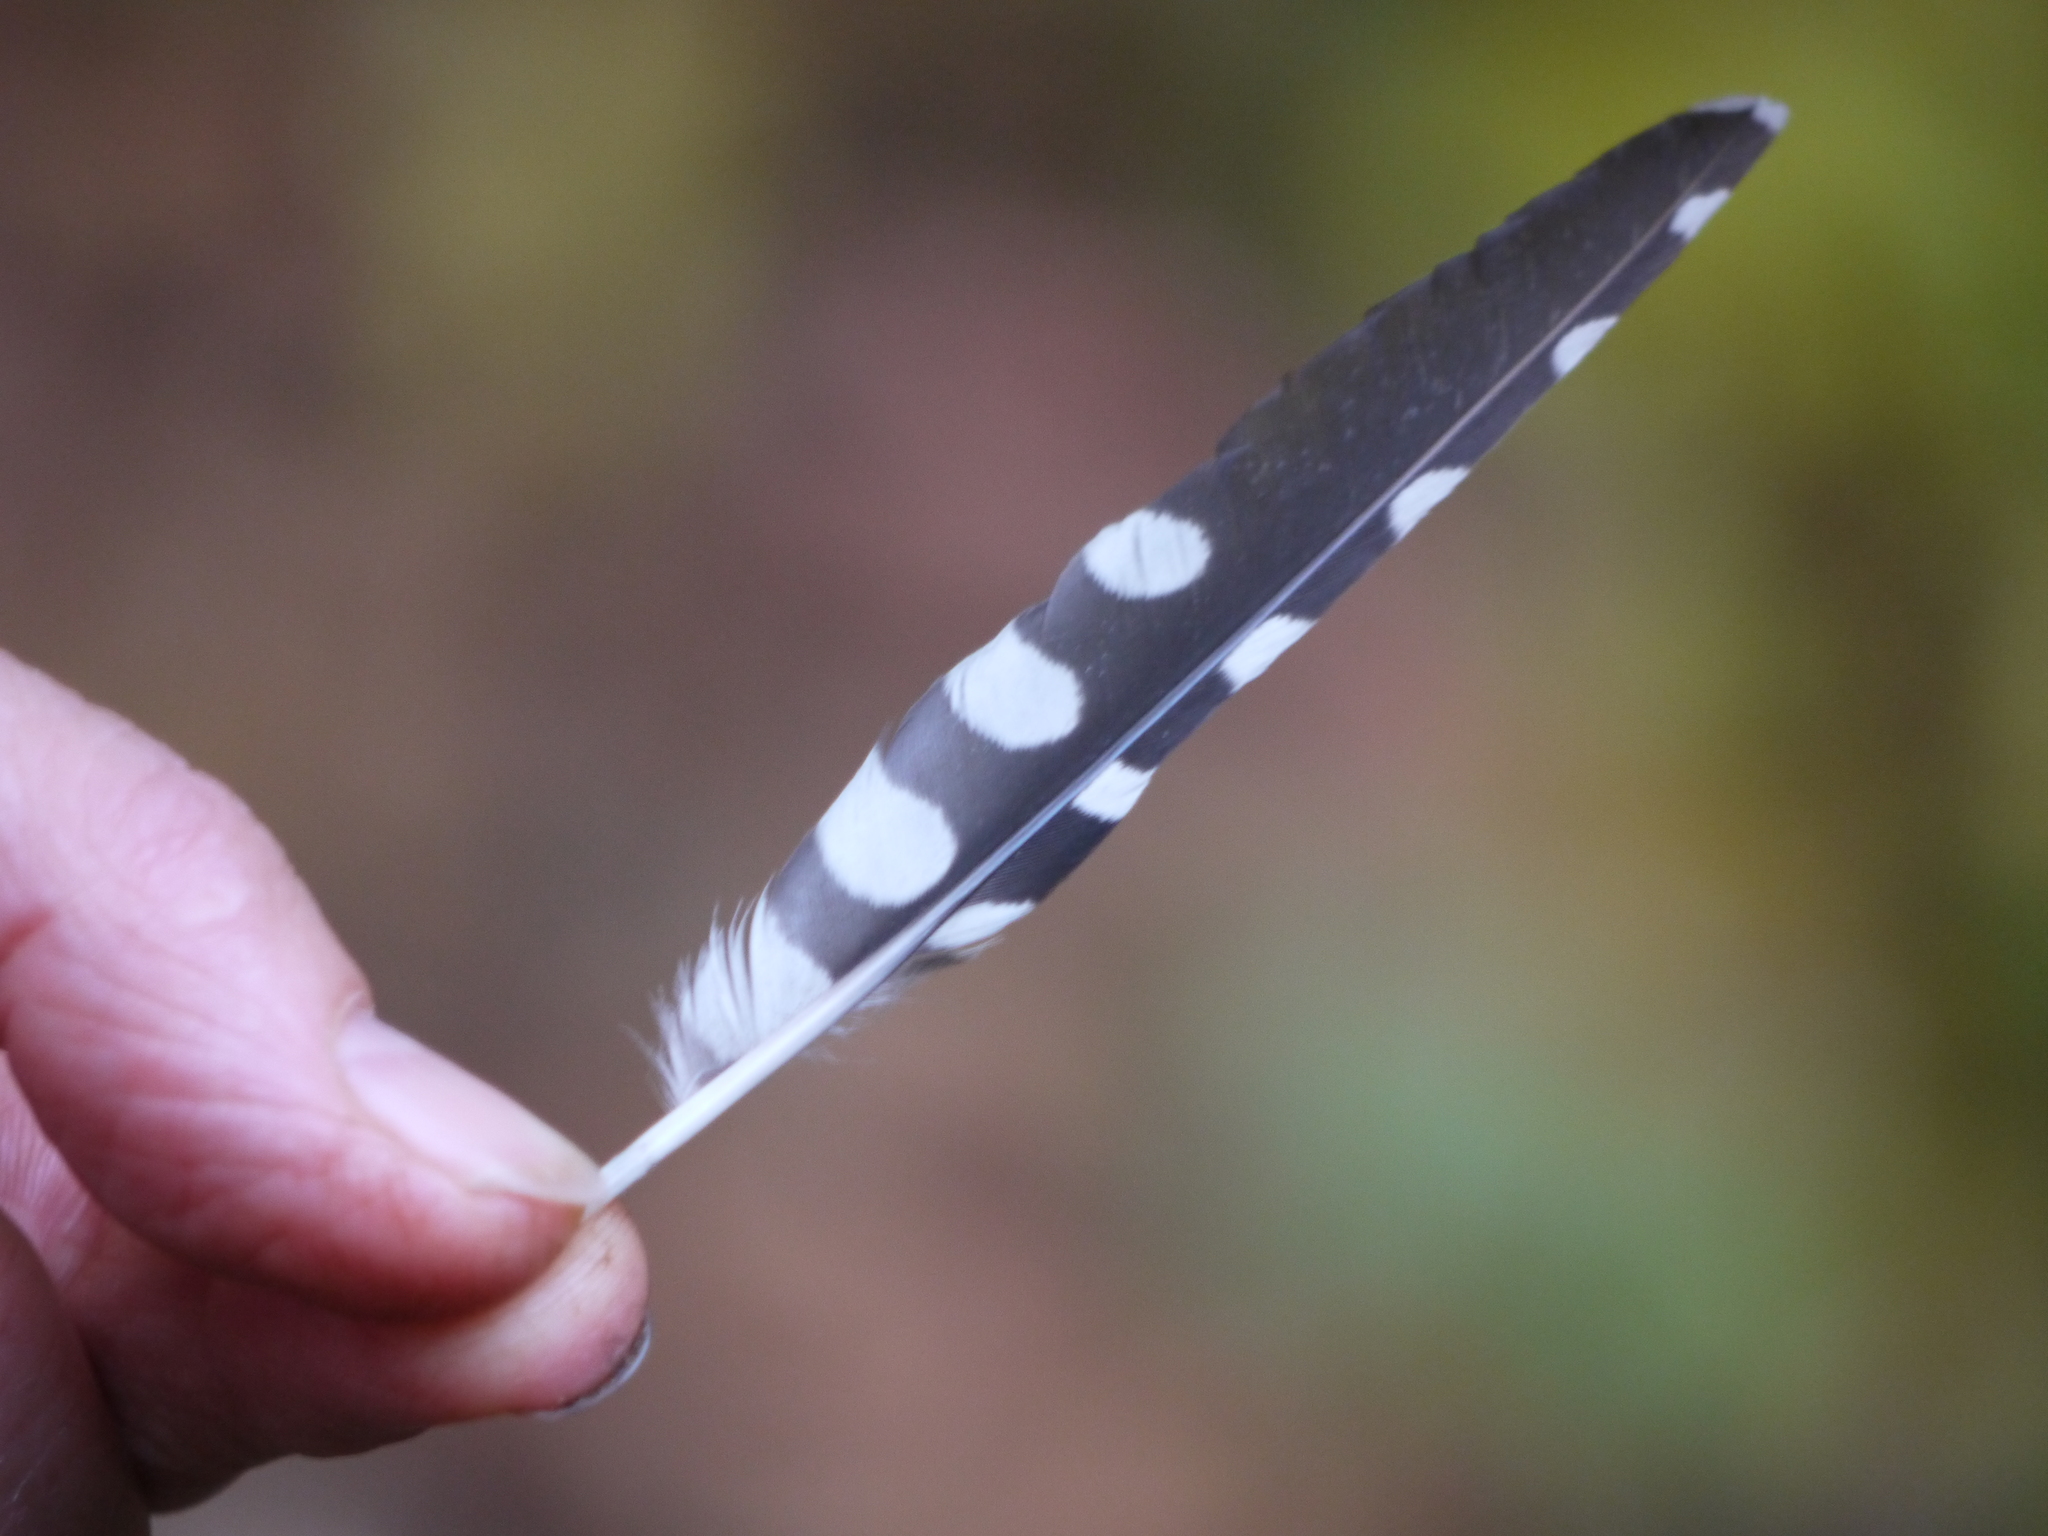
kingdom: Animalia
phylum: Chordata
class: Aves
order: Piciformes
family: Picidae
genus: Dendrocopos
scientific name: Dendrocopos major
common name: Great spotted woodpecker
